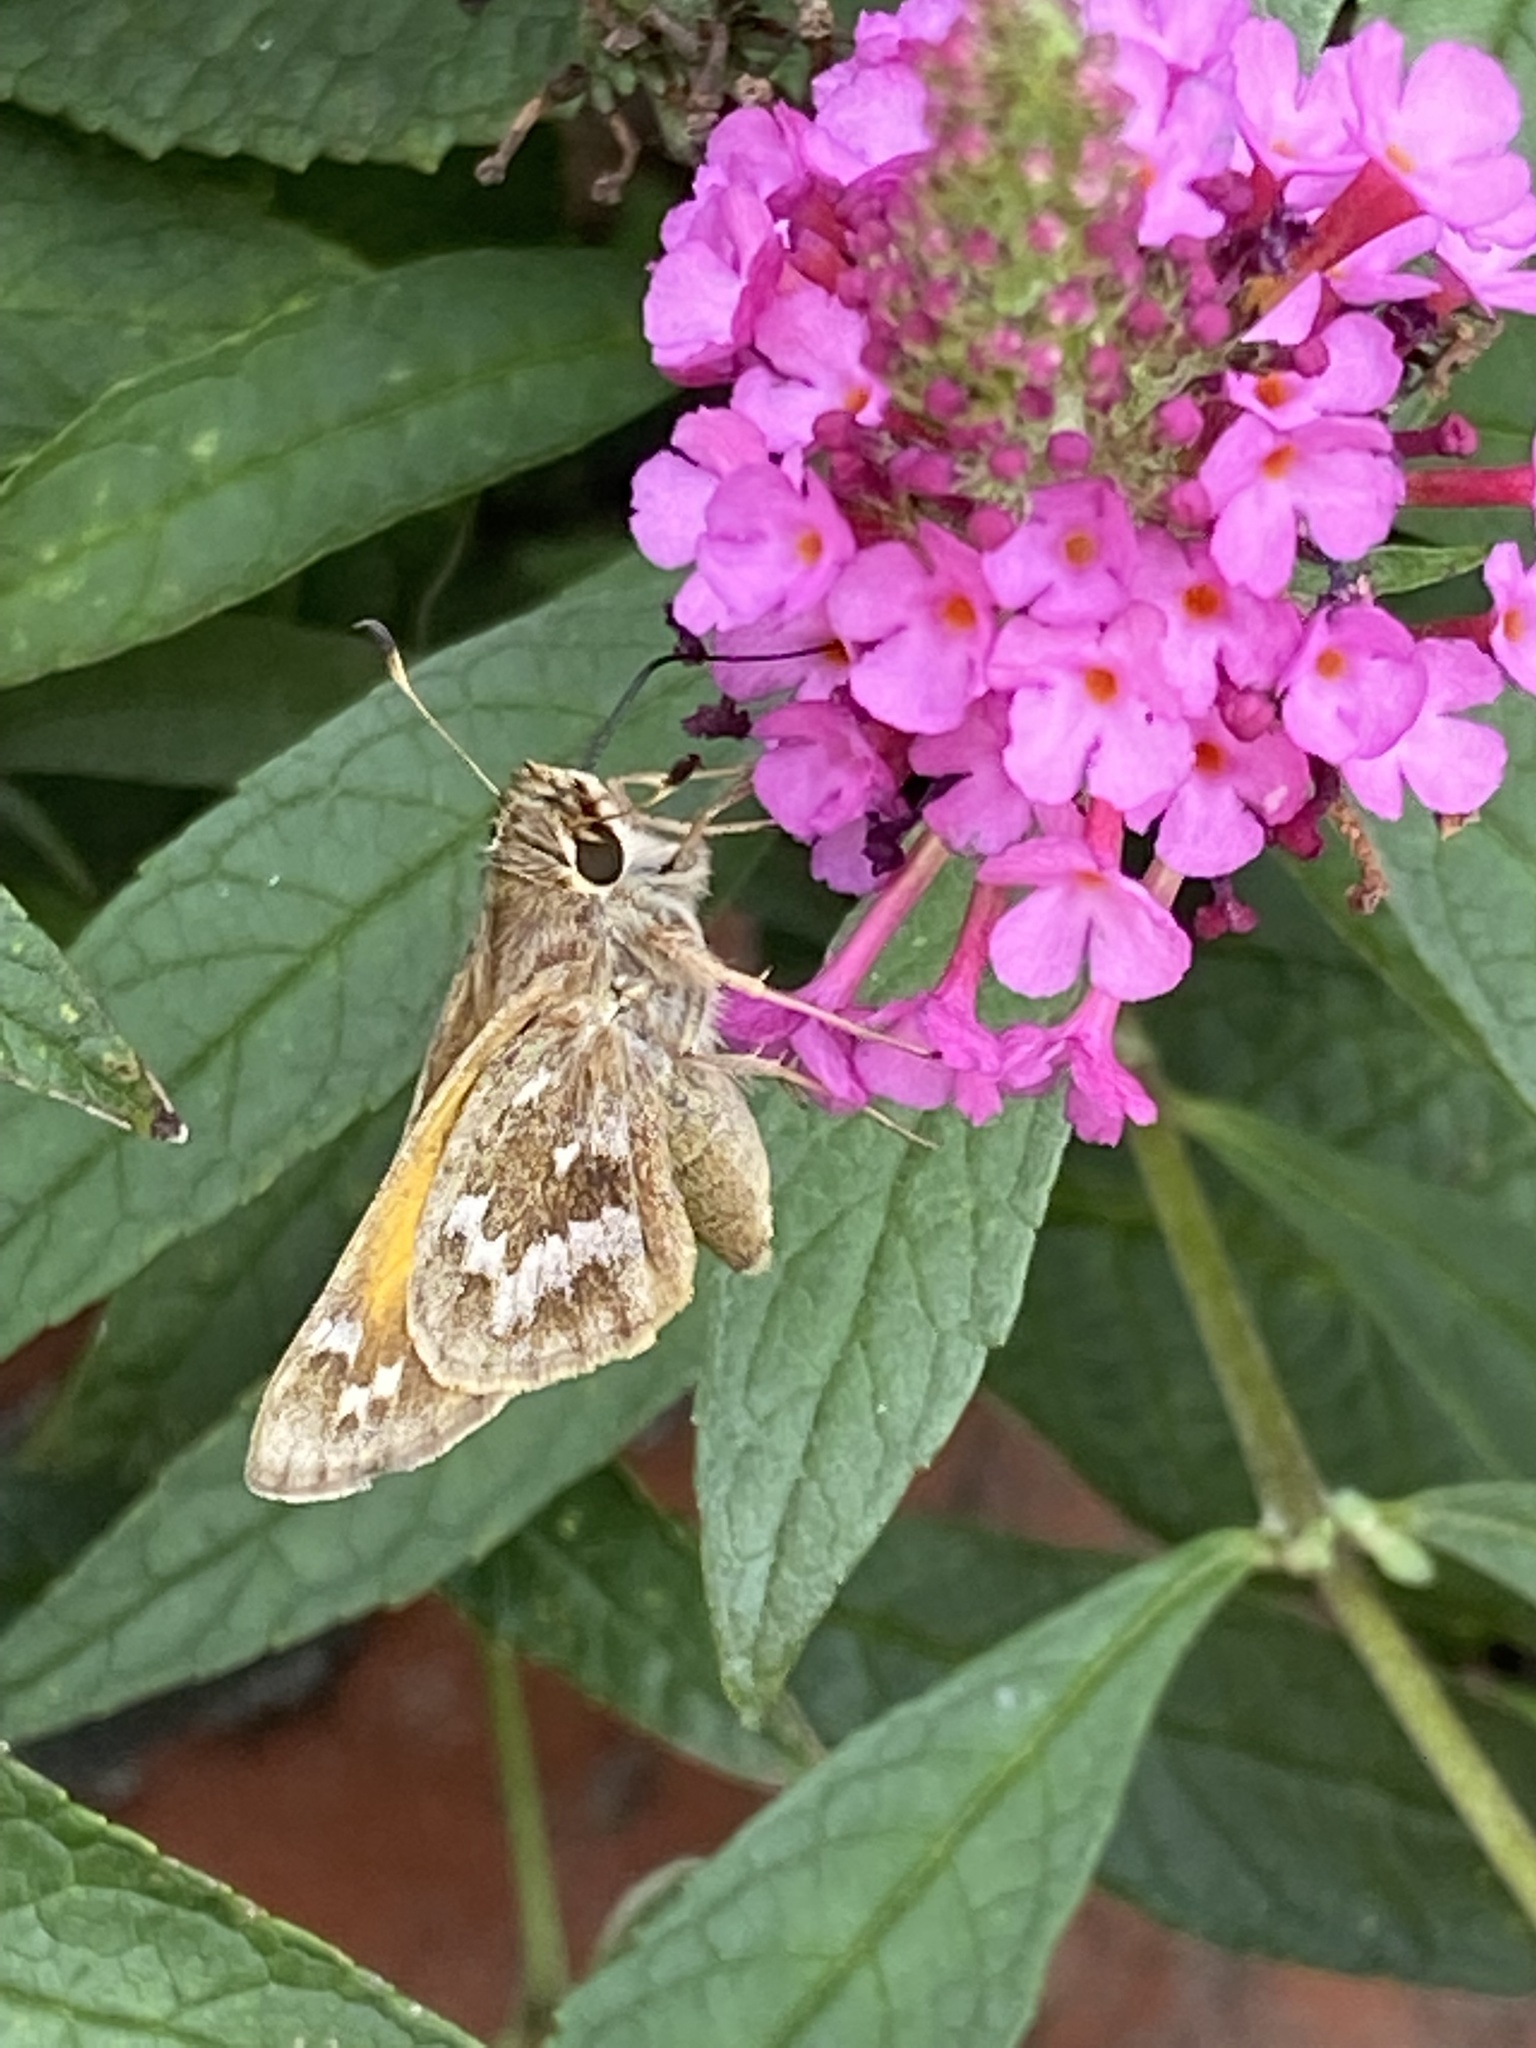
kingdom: Animalia
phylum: Arthropoda
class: Insecta
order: Lepidoptera
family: Hesperiidae
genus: Atalopedes
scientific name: Atalopedes
